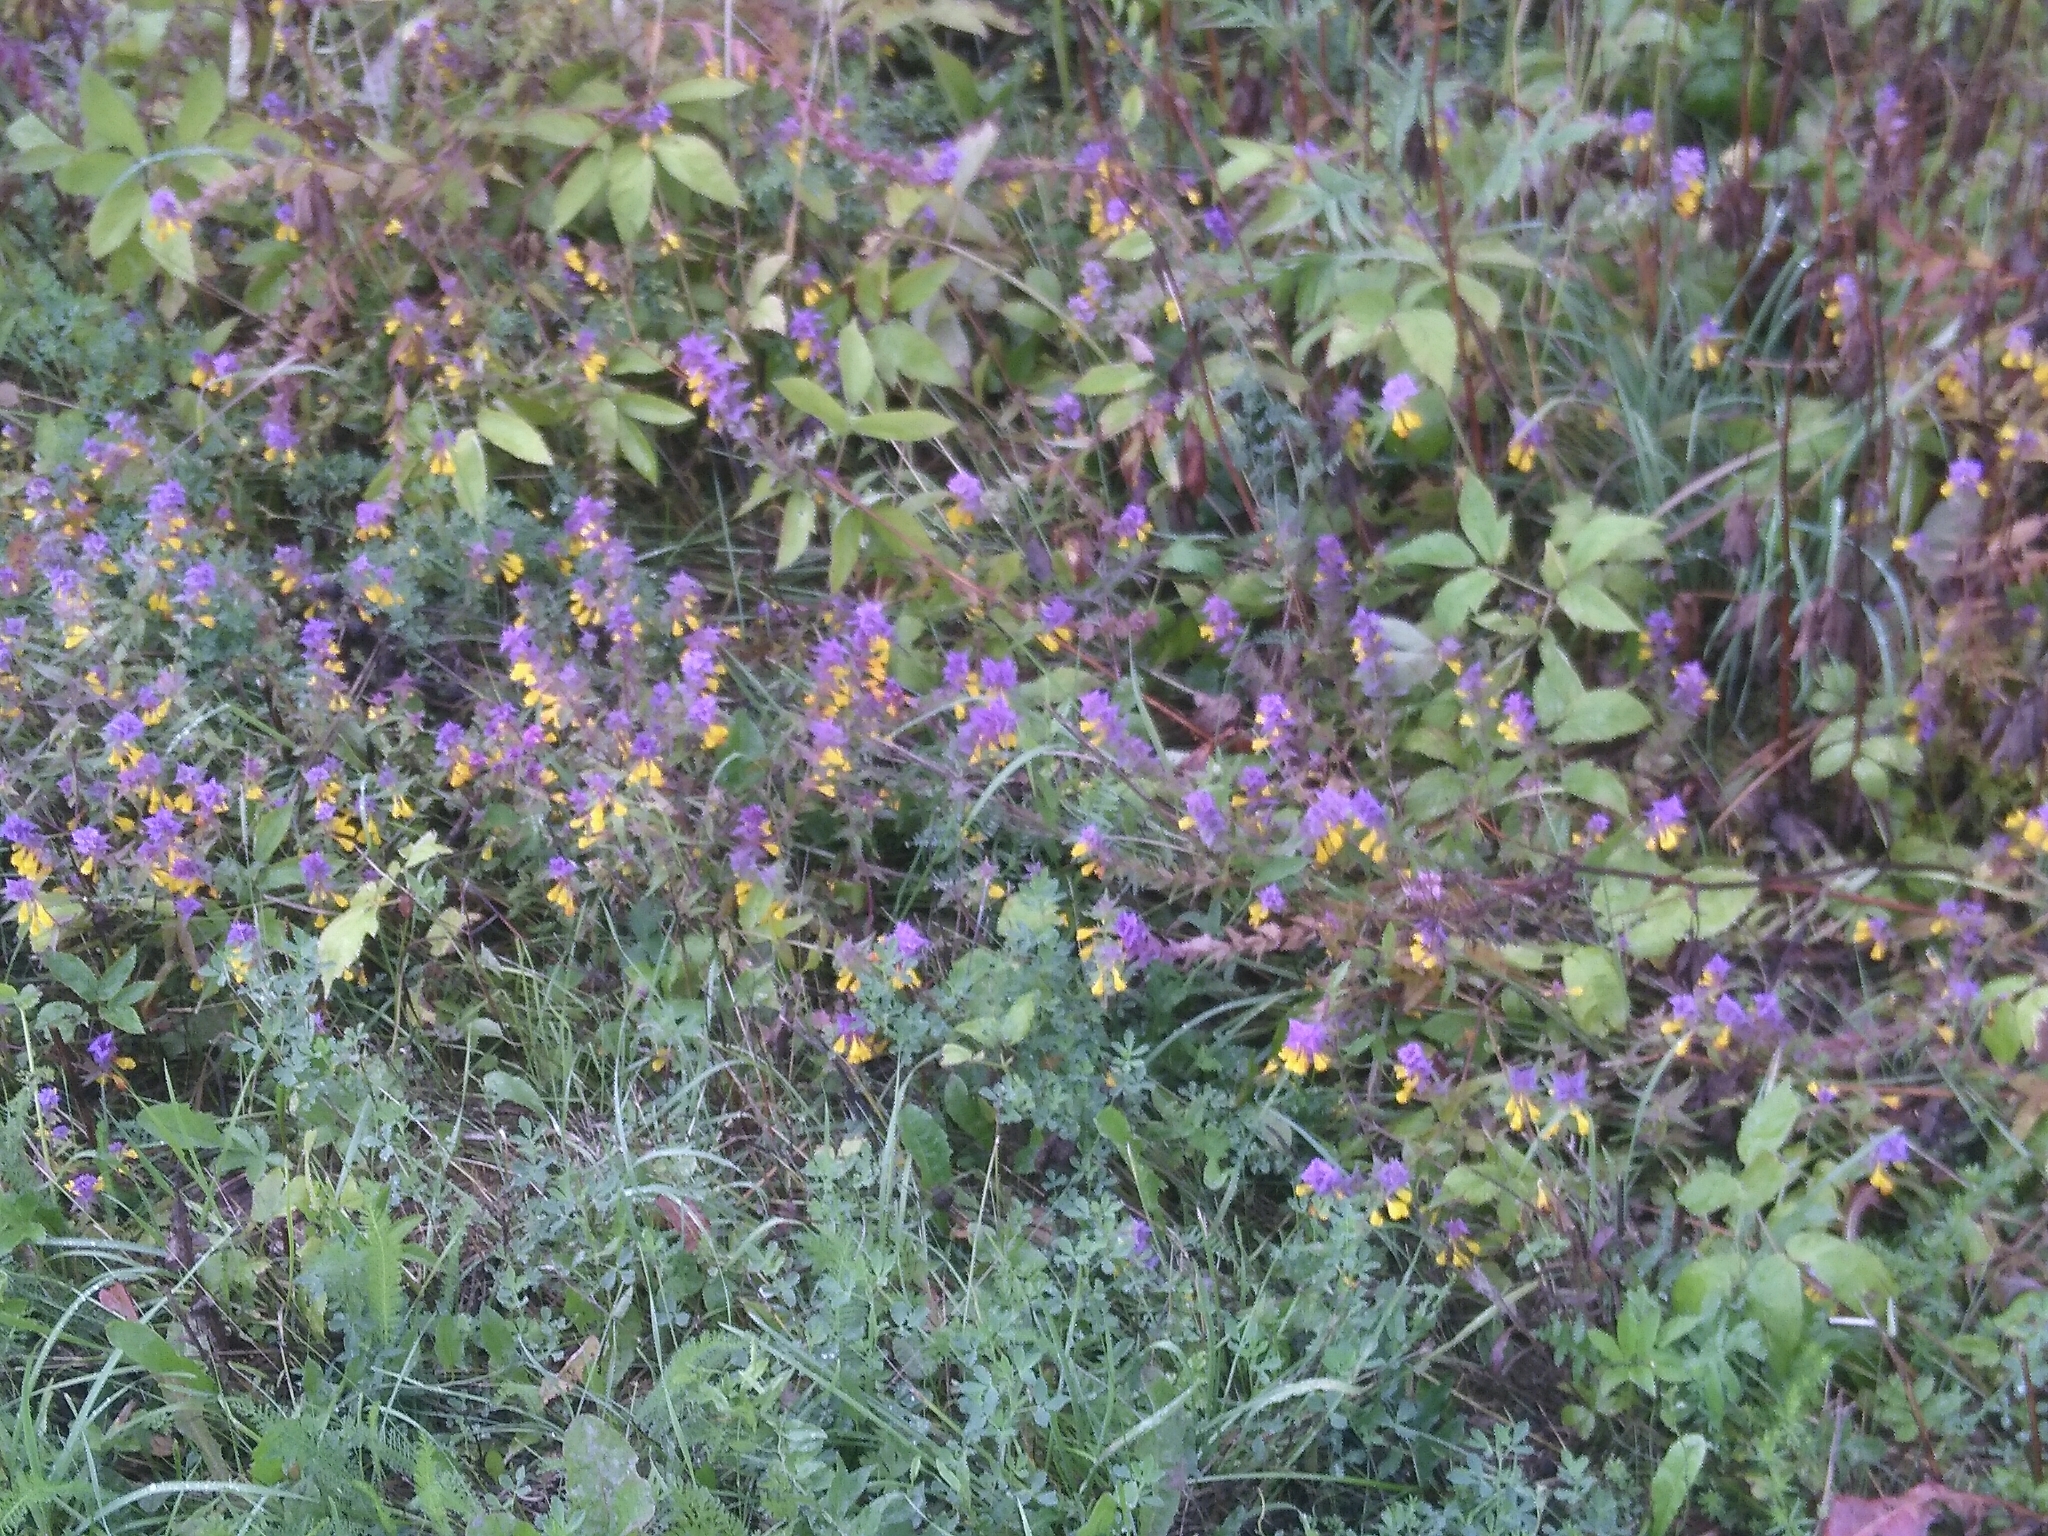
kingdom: Plantae
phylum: Tracheophyta
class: Magnoliopsida
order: Lamiales
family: Orobanchaceae
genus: Melampyrum
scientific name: Melampyrum nemorosum
